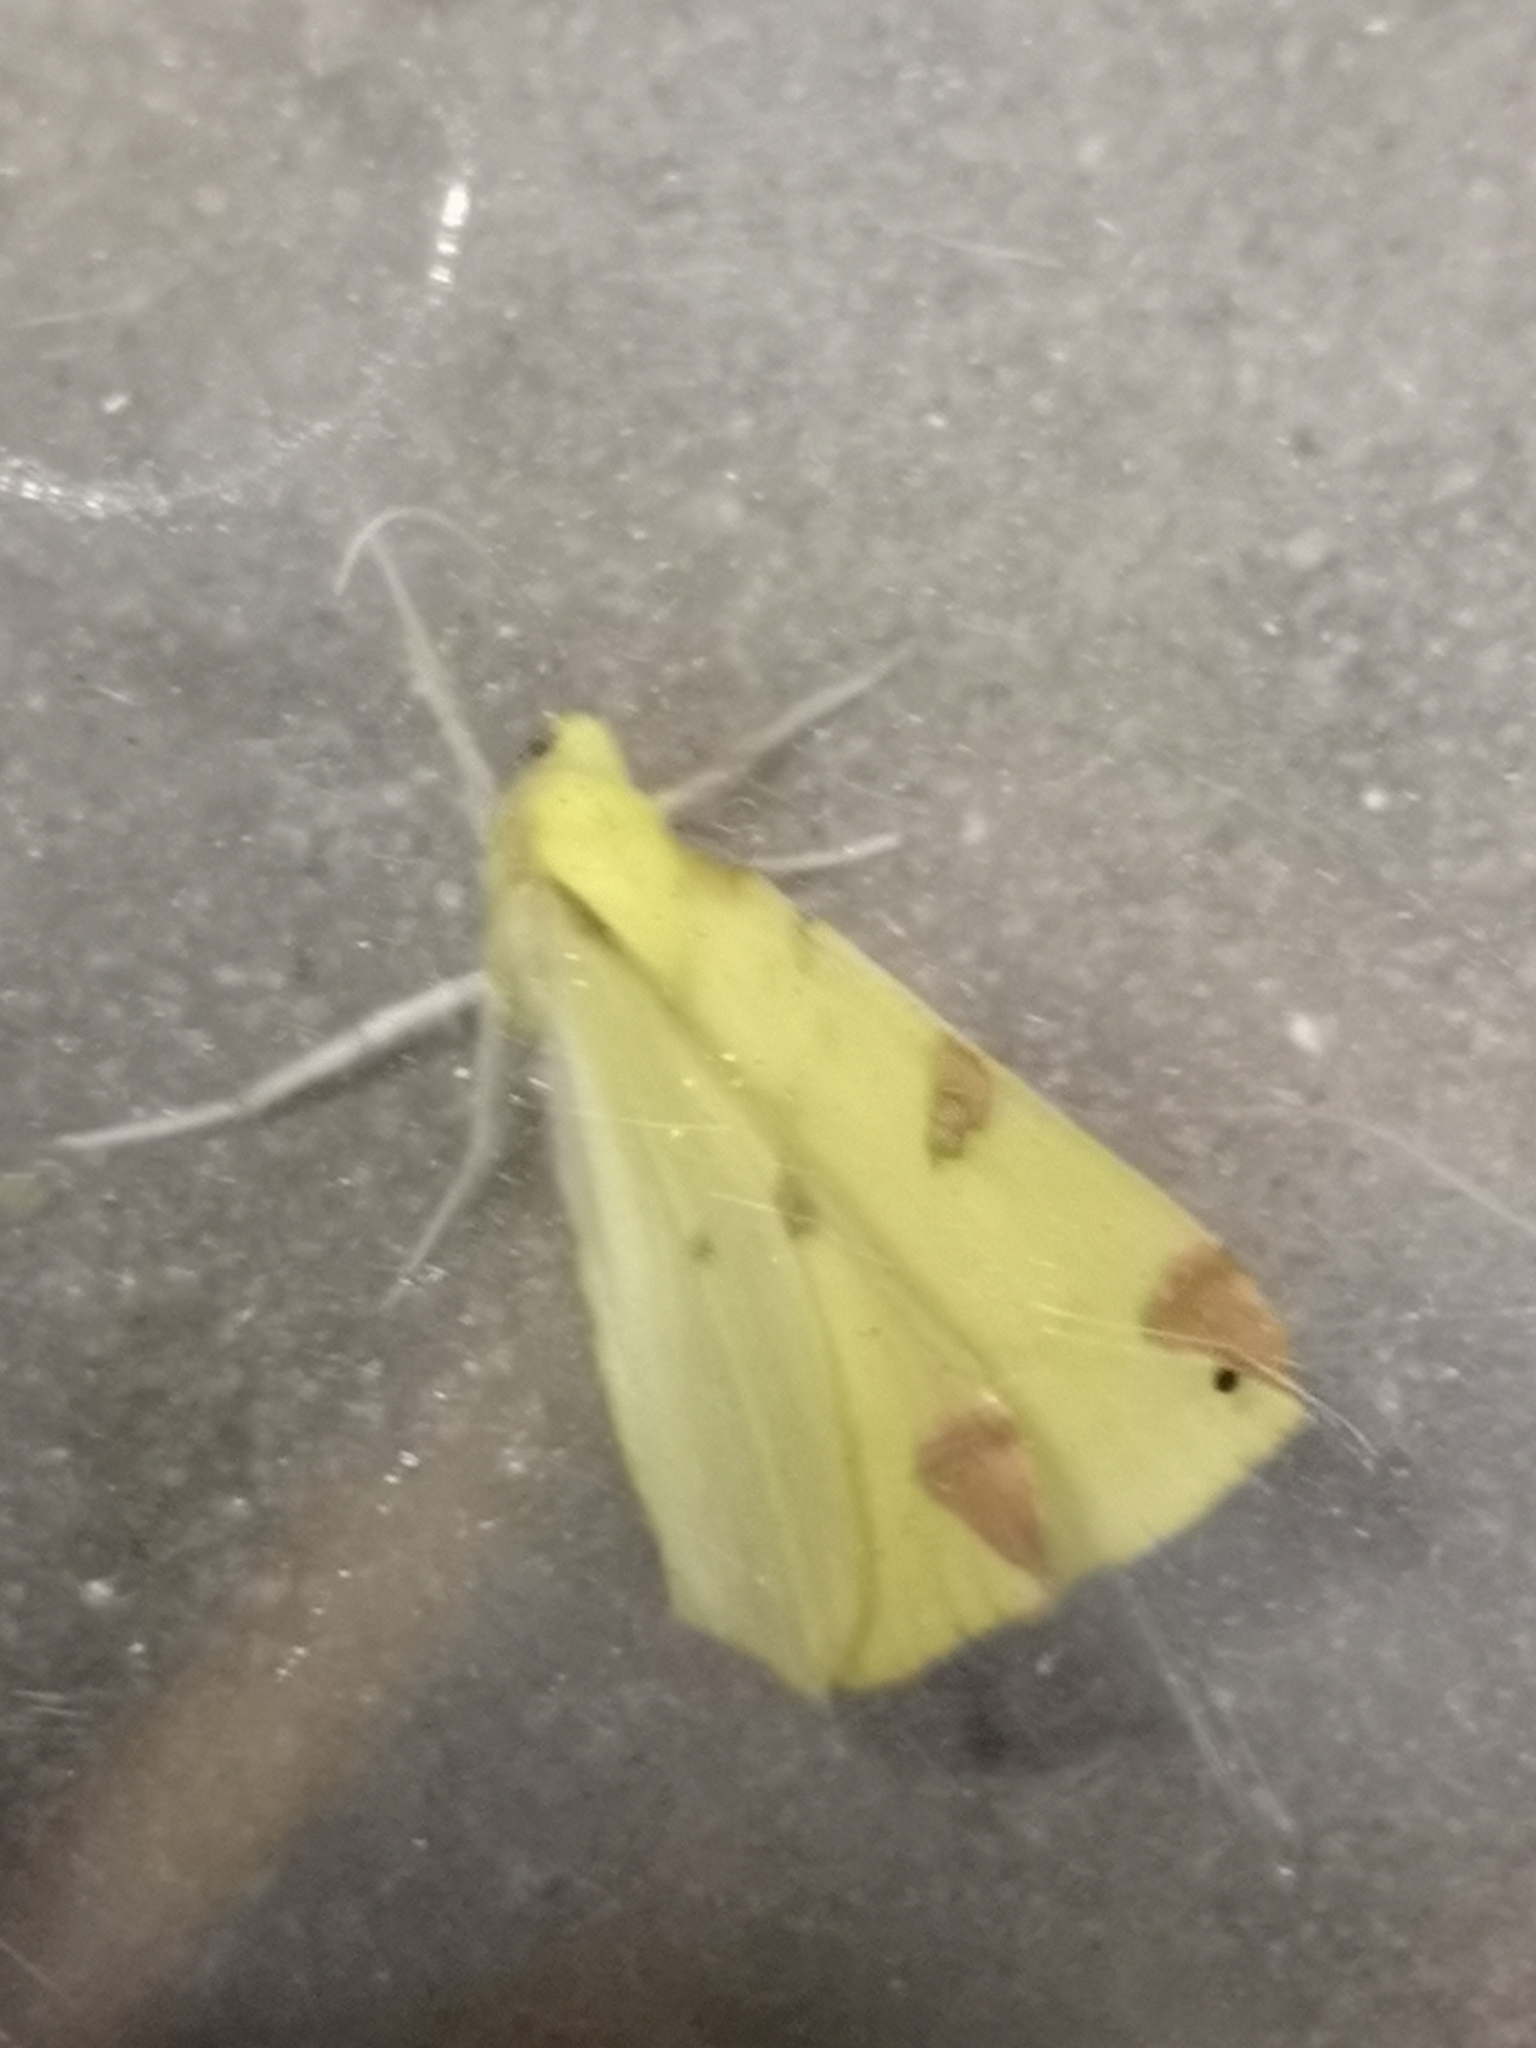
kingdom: Animalia
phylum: Arthropoda
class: Insecta
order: Lepidoptera
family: Geometridae
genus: Opisthograptis
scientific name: Opisthograptis luteolata
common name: Brimstone moth
